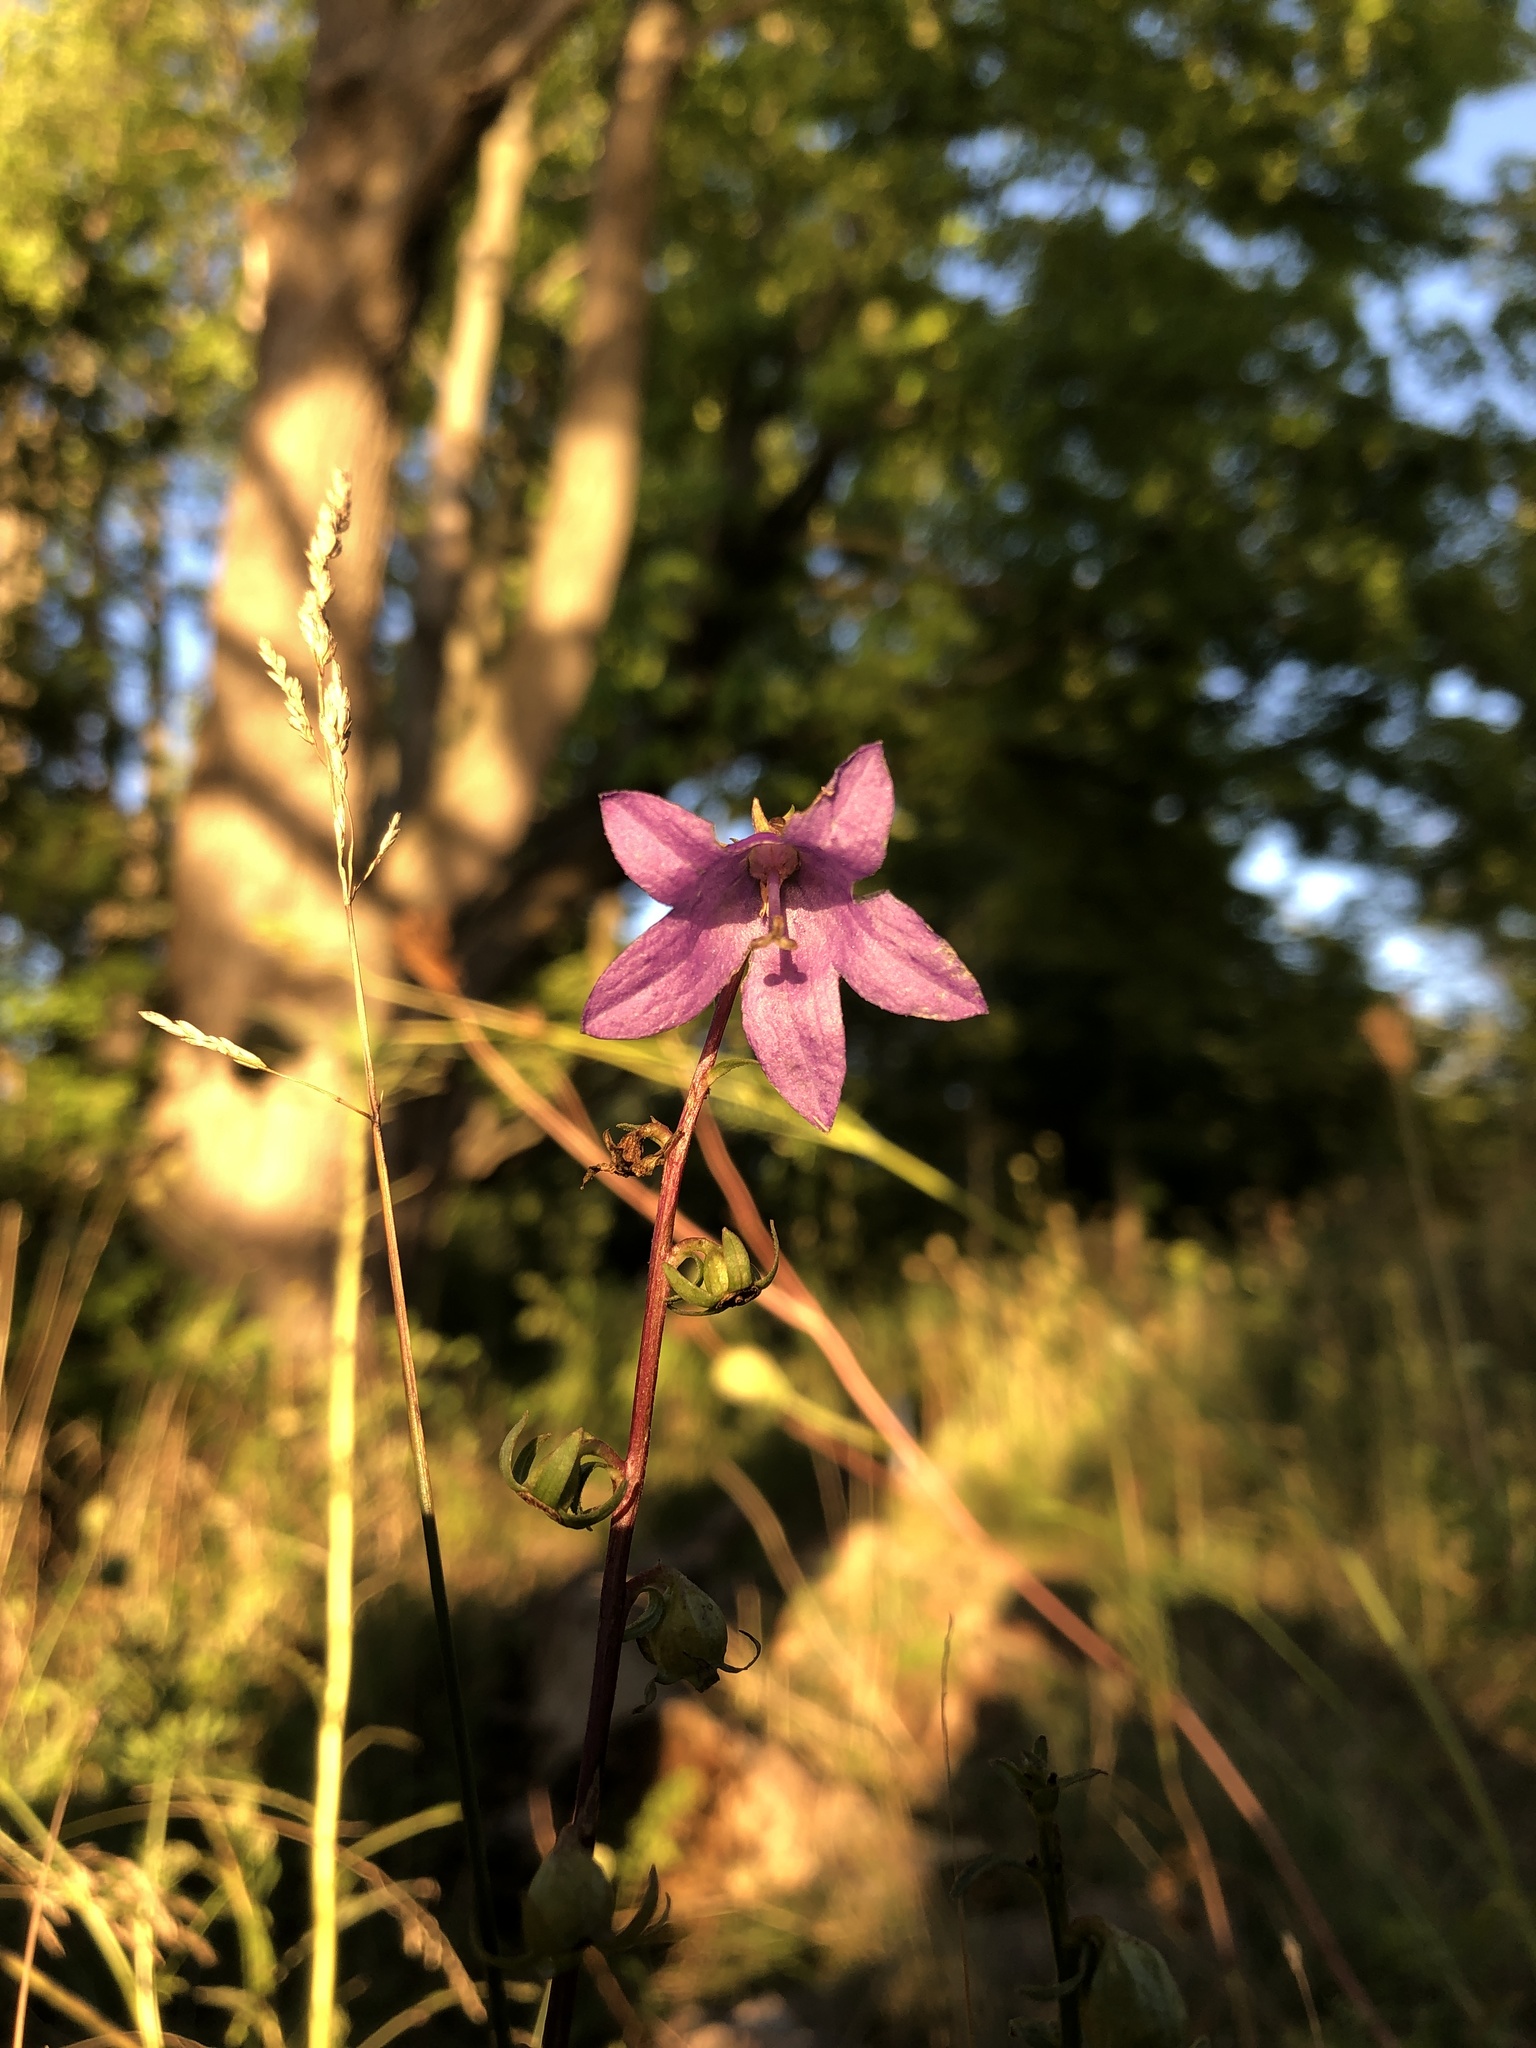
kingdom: Plantae
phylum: Tracheophyta
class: Magnoliopsida
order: Asterales
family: Campanulaceae
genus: Campanula
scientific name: Campanula rapunculoides
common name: Creeping bellflower
